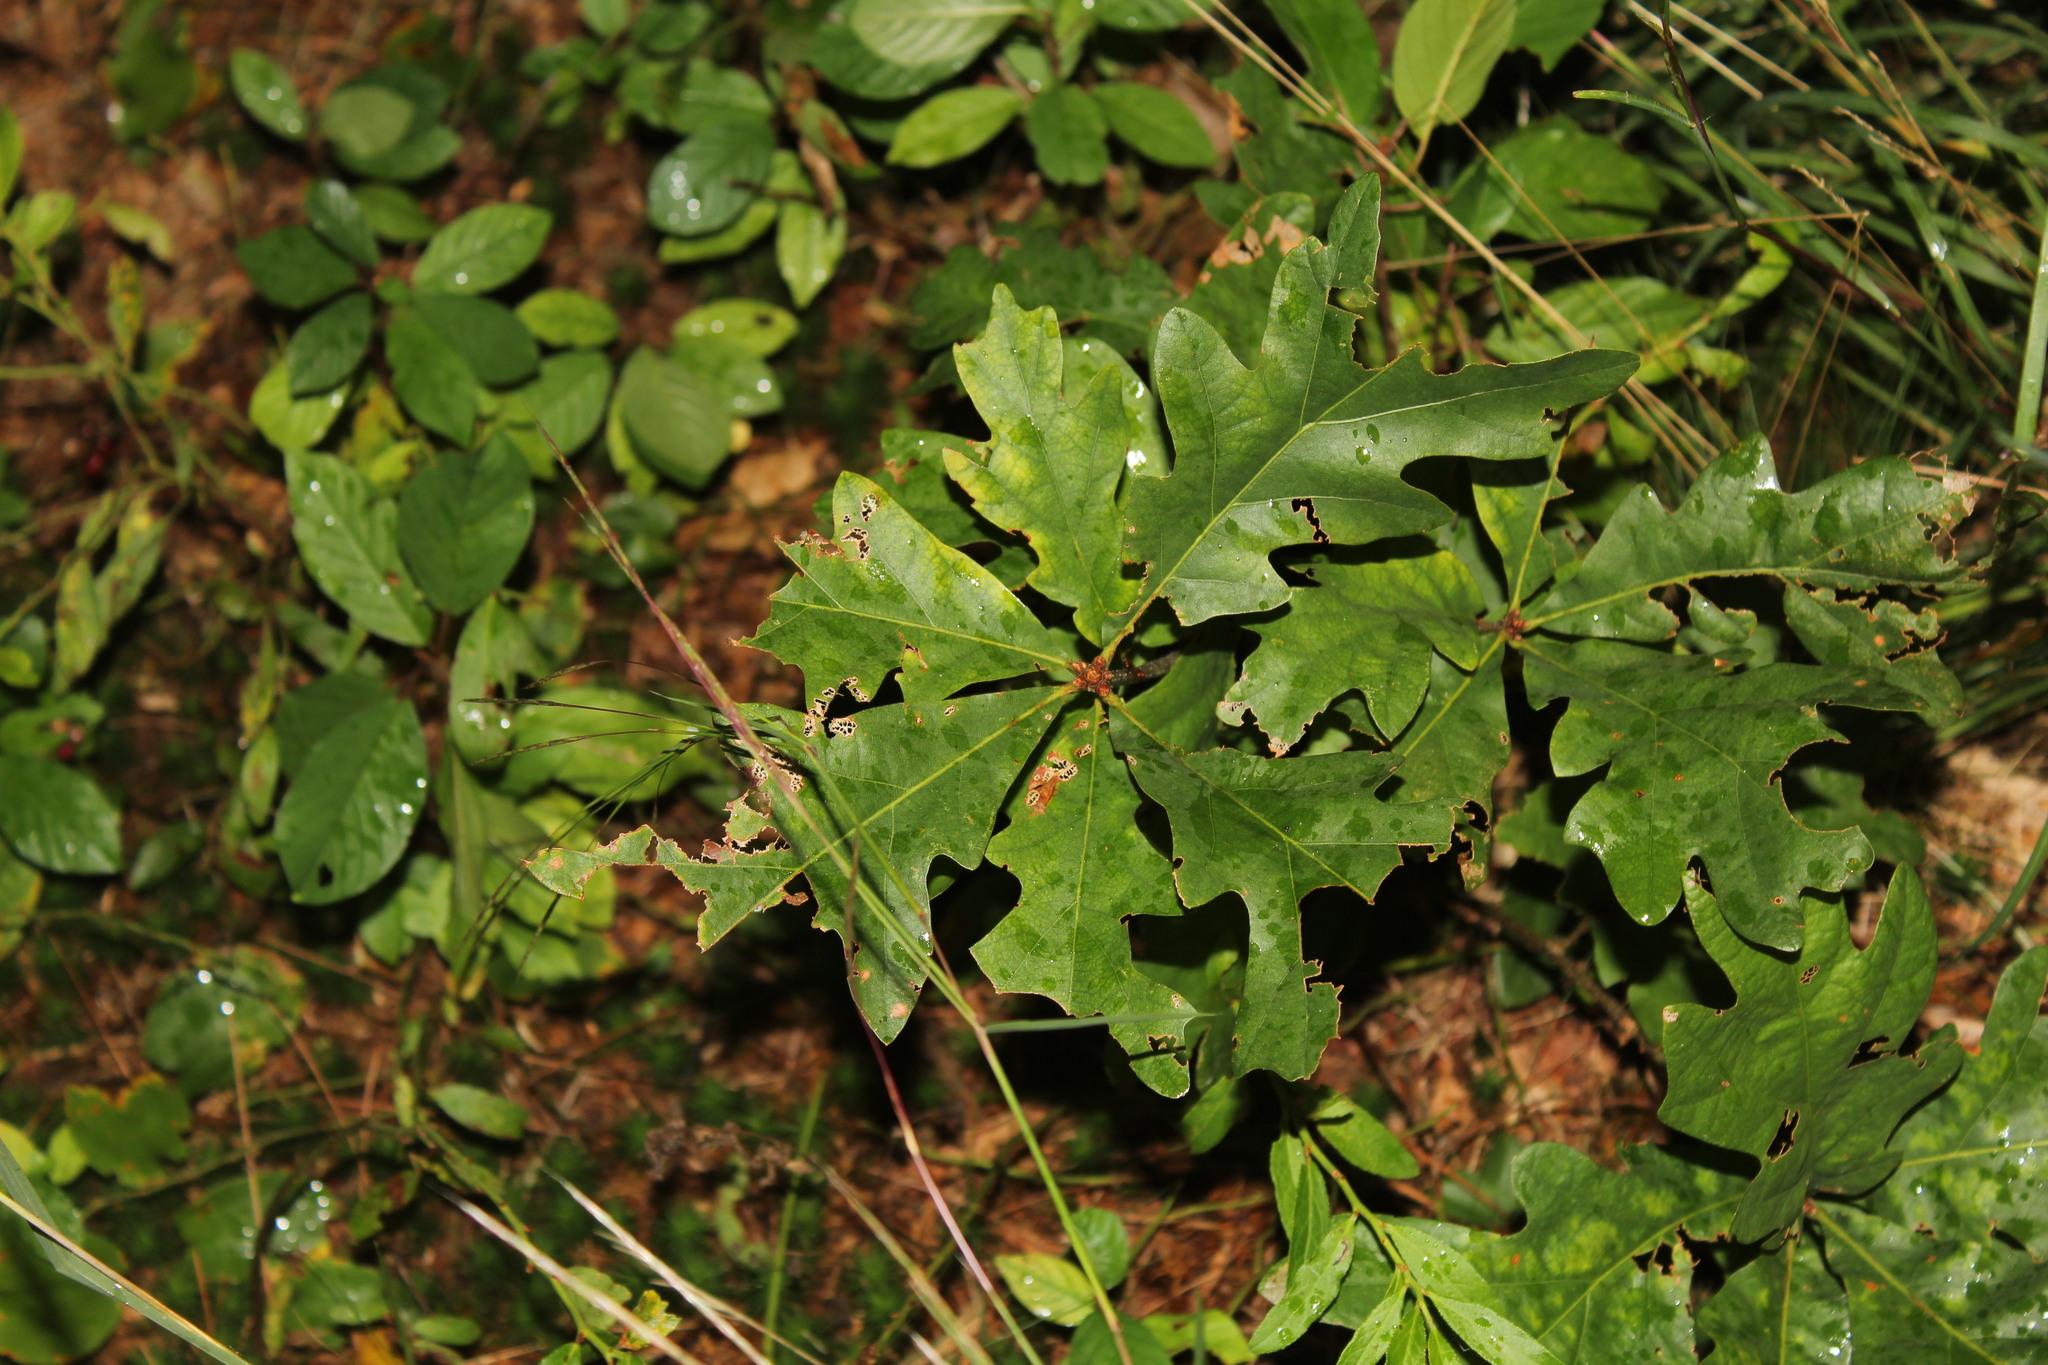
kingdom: Plantae
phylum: Tracheophyta
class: Magnoliopsida
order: Fagales
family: Fagaceae
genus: Quercus
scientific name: Quercus alba
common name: White oak
